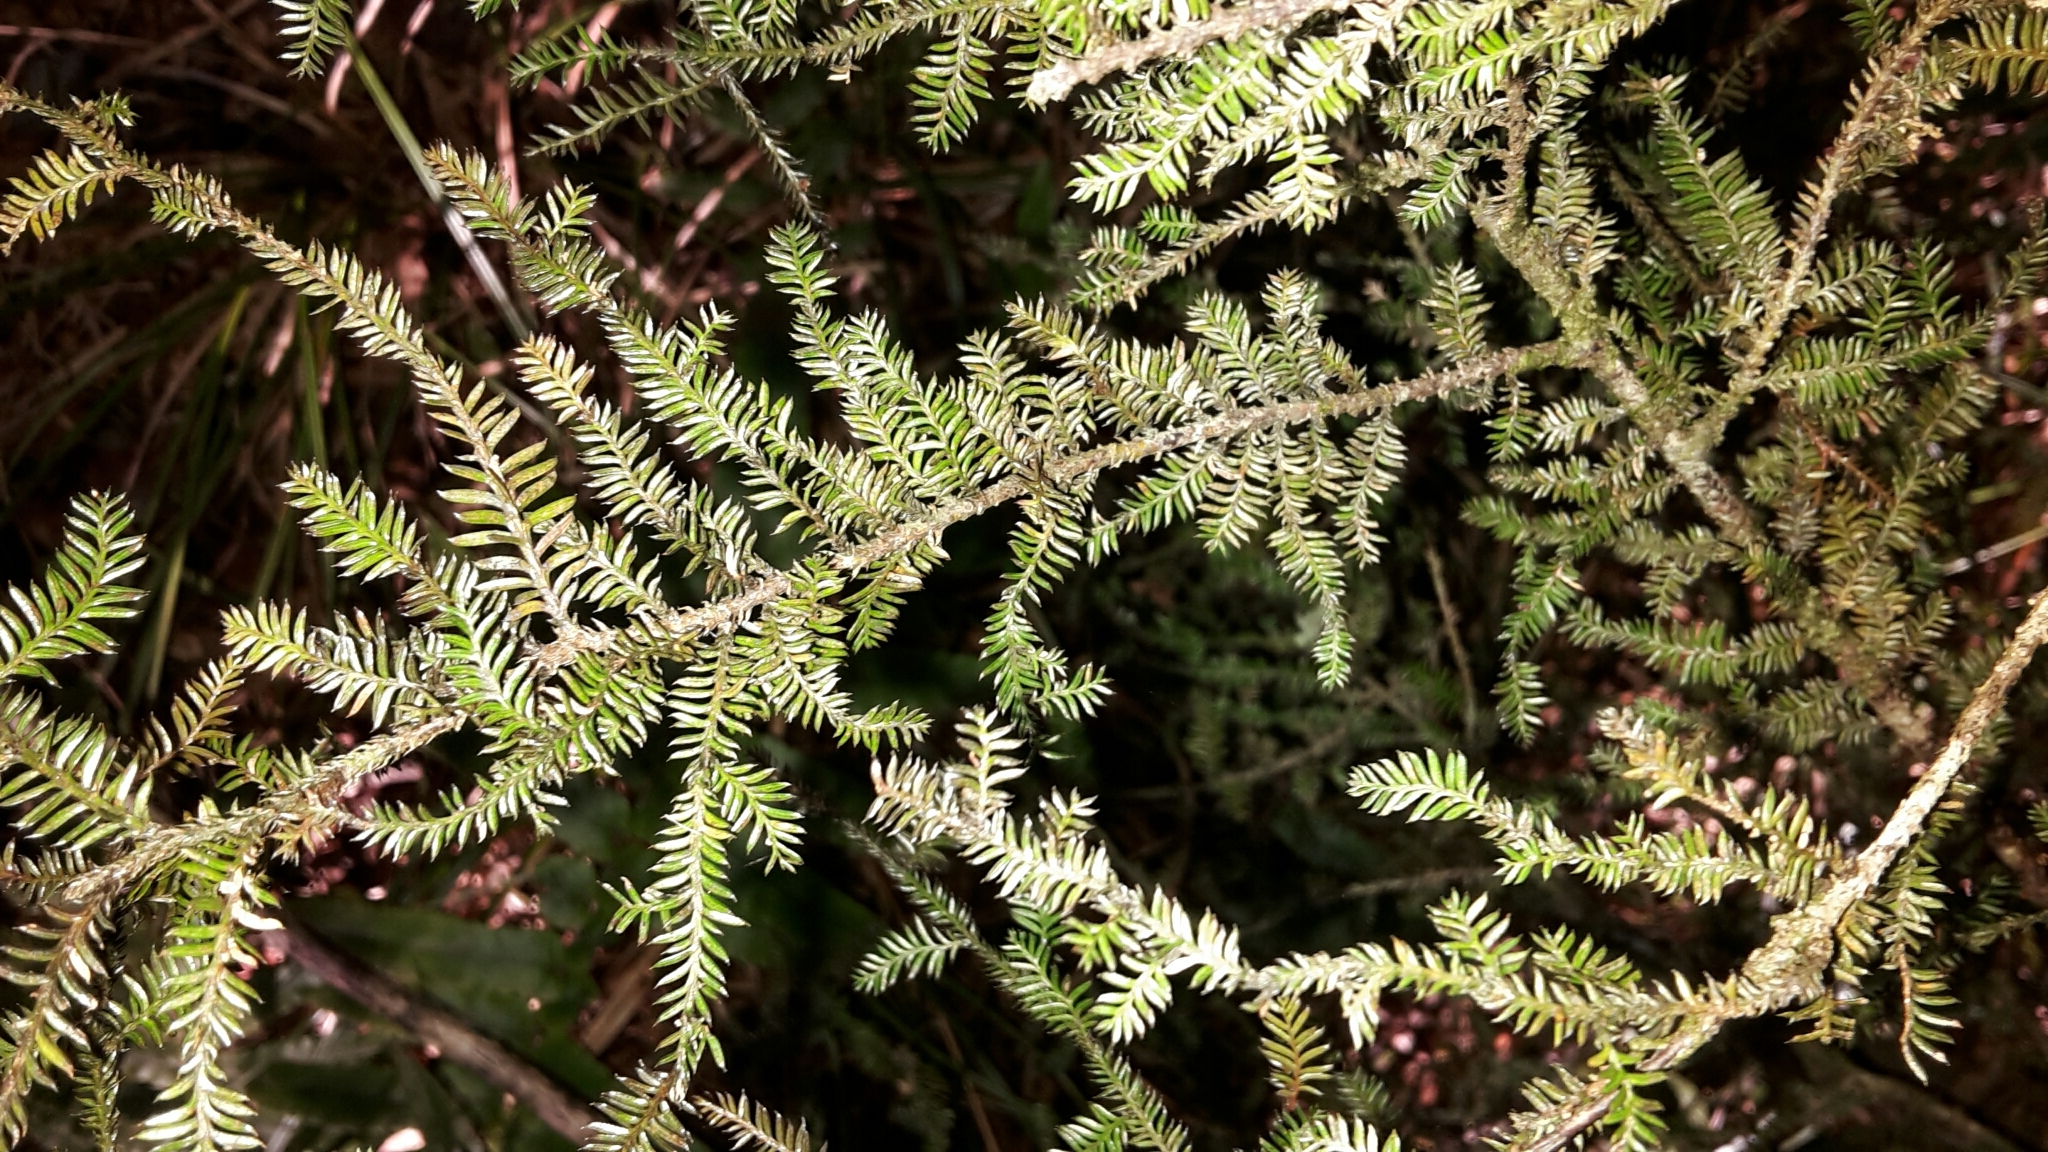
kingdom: Plantae
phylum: Tracheophyta
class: Pinopsida
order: Pinales
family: Podocarpaceae
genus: Dacrycarpus
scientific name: Dacrycarpus dacrydioides
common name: White pine
